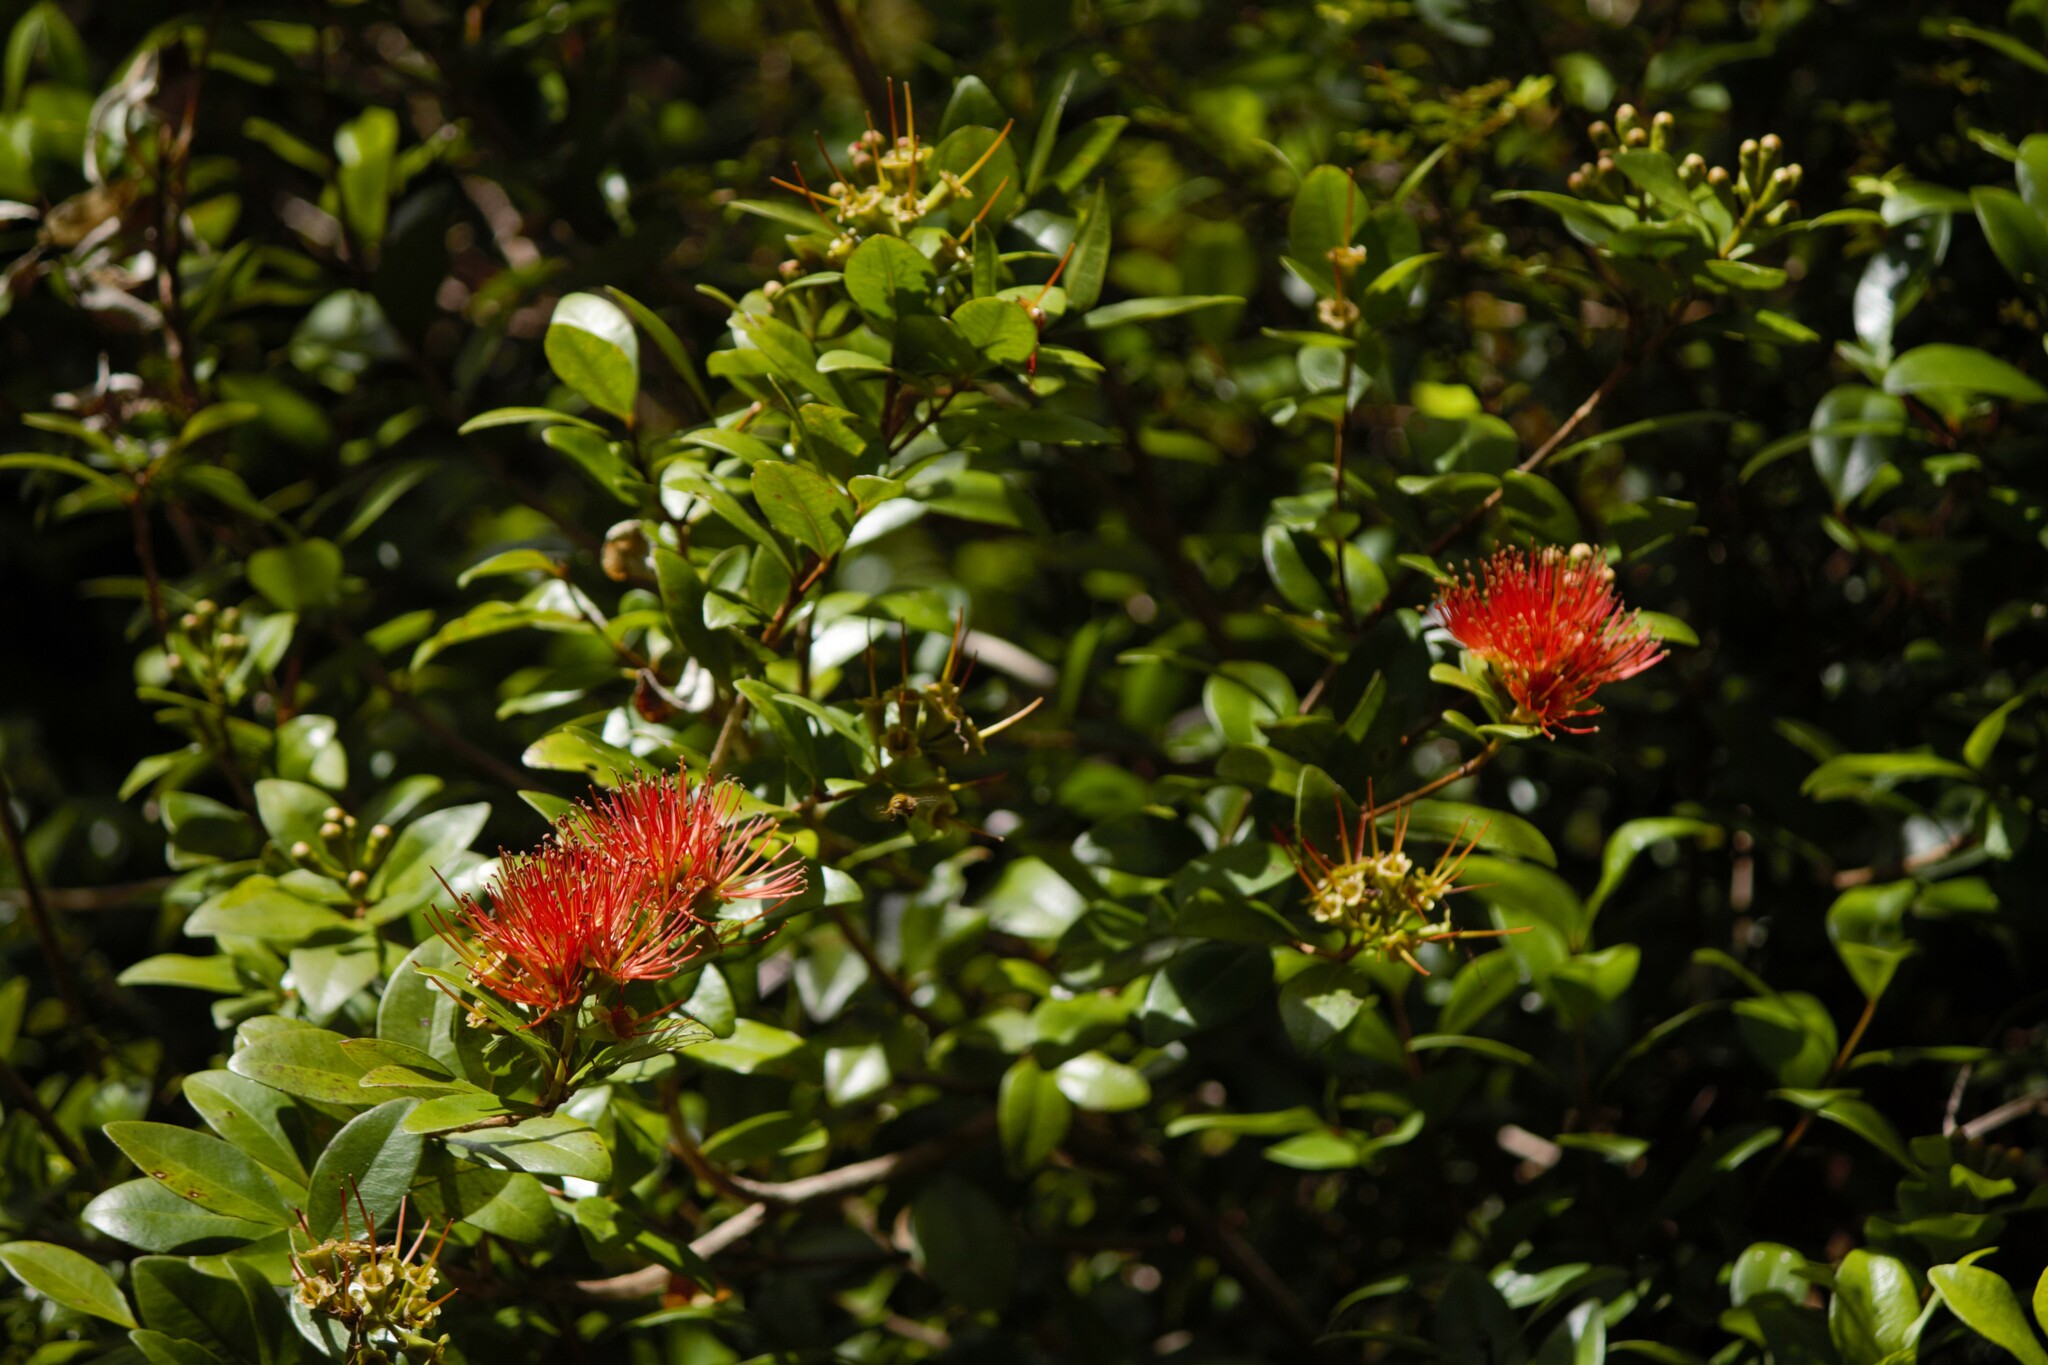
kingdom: Plantae
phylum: Tracheophyta
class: Magnoliopsida
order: Myrtales
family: Myrtaceae
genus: Metrosideros
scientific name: Metrosideros fulgens
